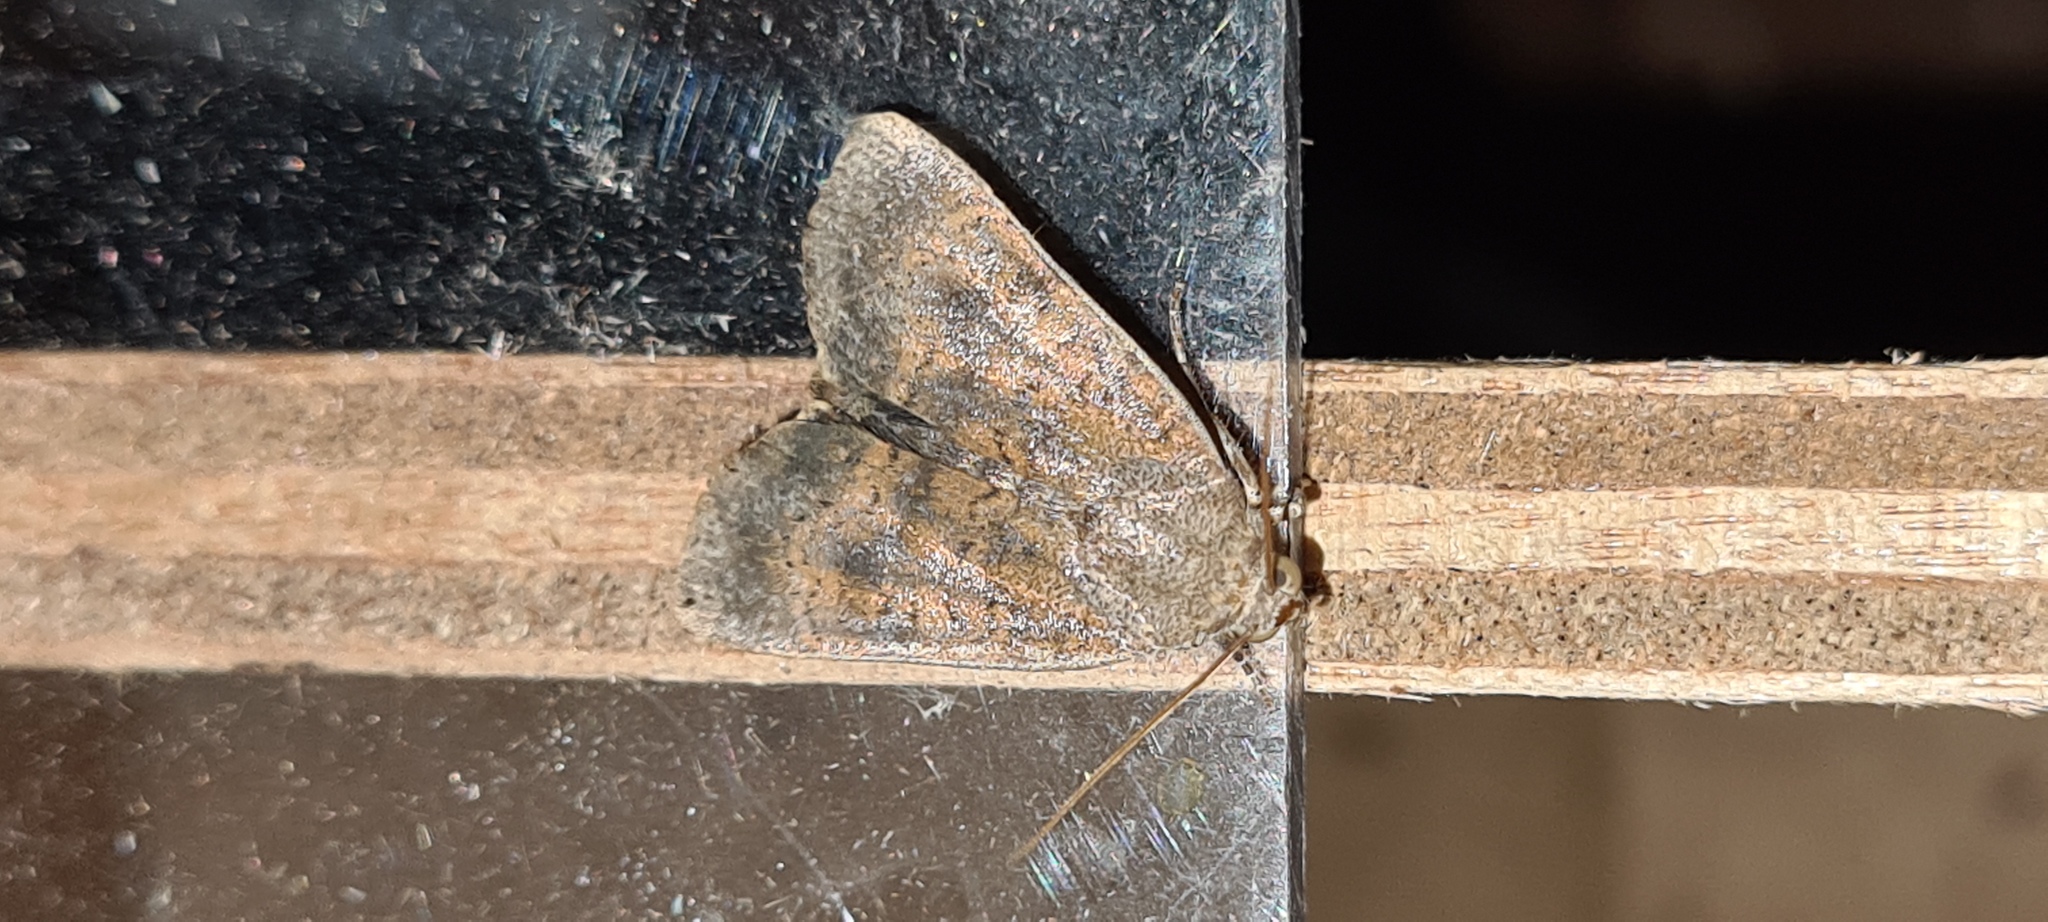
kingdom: Animalia
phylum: Arthropoda
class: Insecta
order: Lepidoptera
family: Noctuidae
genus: Noctua
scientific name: Noctua interjecta
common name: Least yellow underwing
